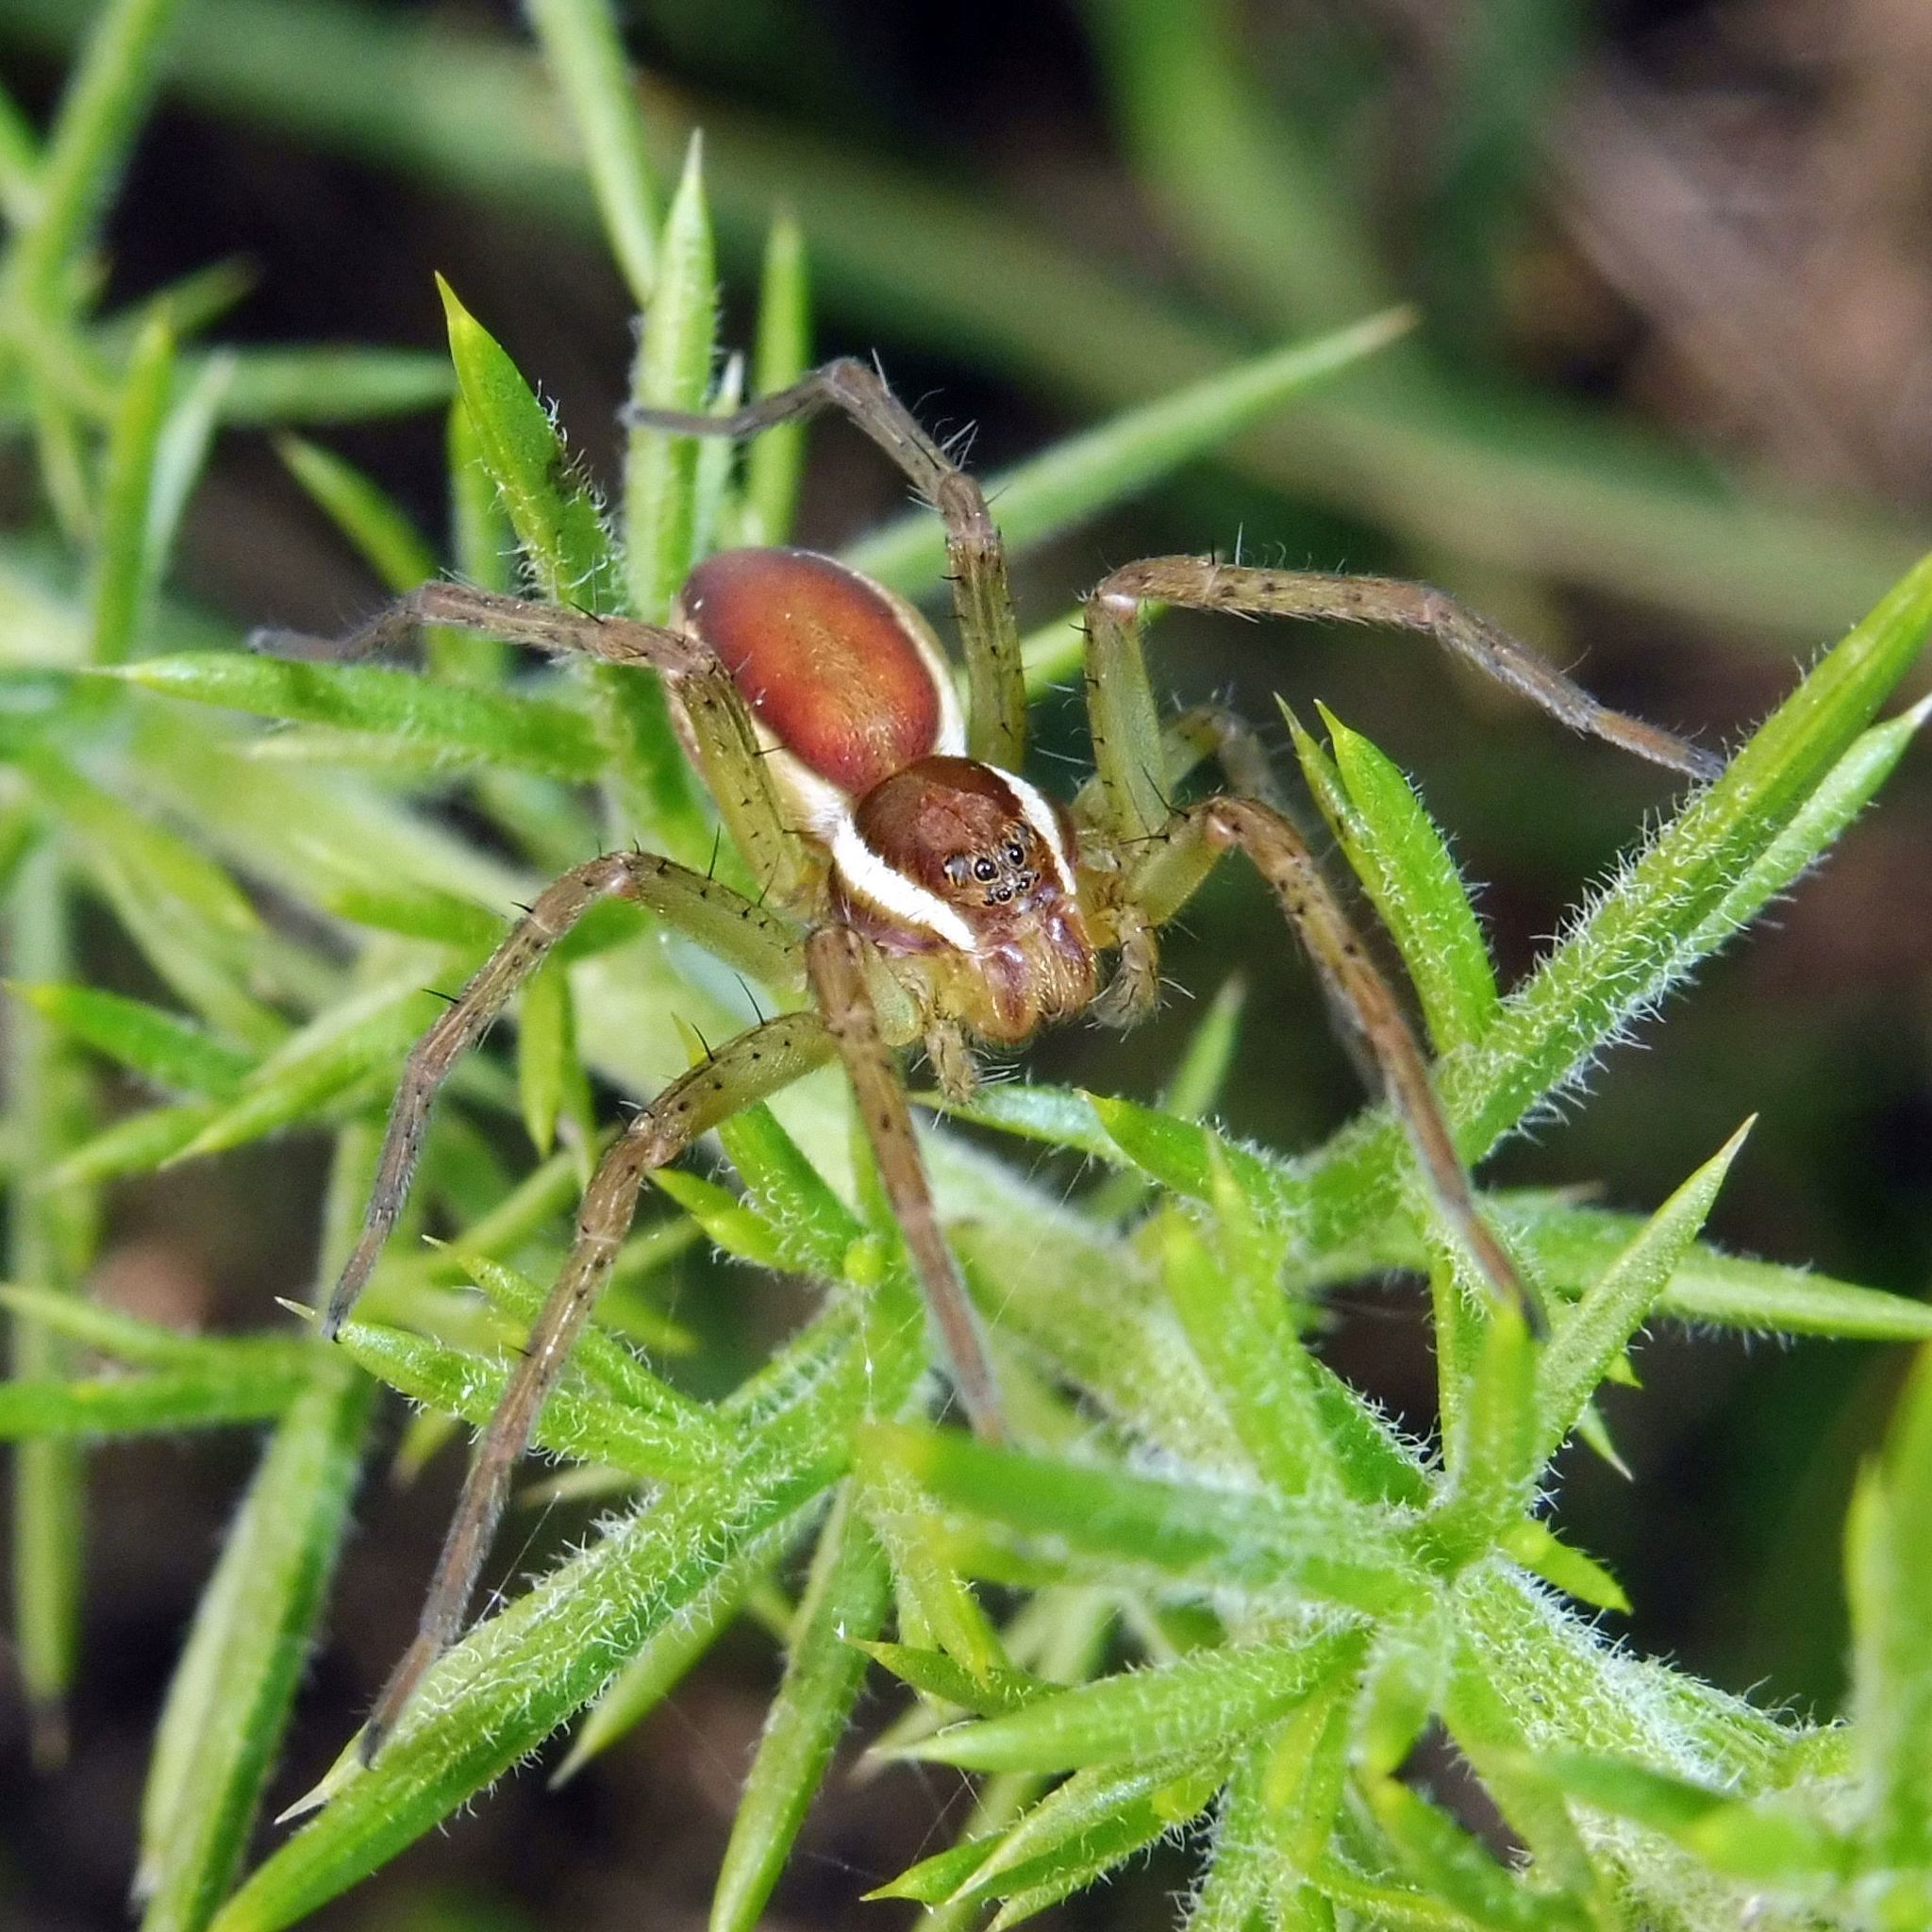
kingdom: Animalia
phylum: Arthropoda
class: Arachnida
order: Araneae
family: Pisauridae
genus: Dolomedes
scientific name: Dolomedes fimbriatus
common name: Raft spider
